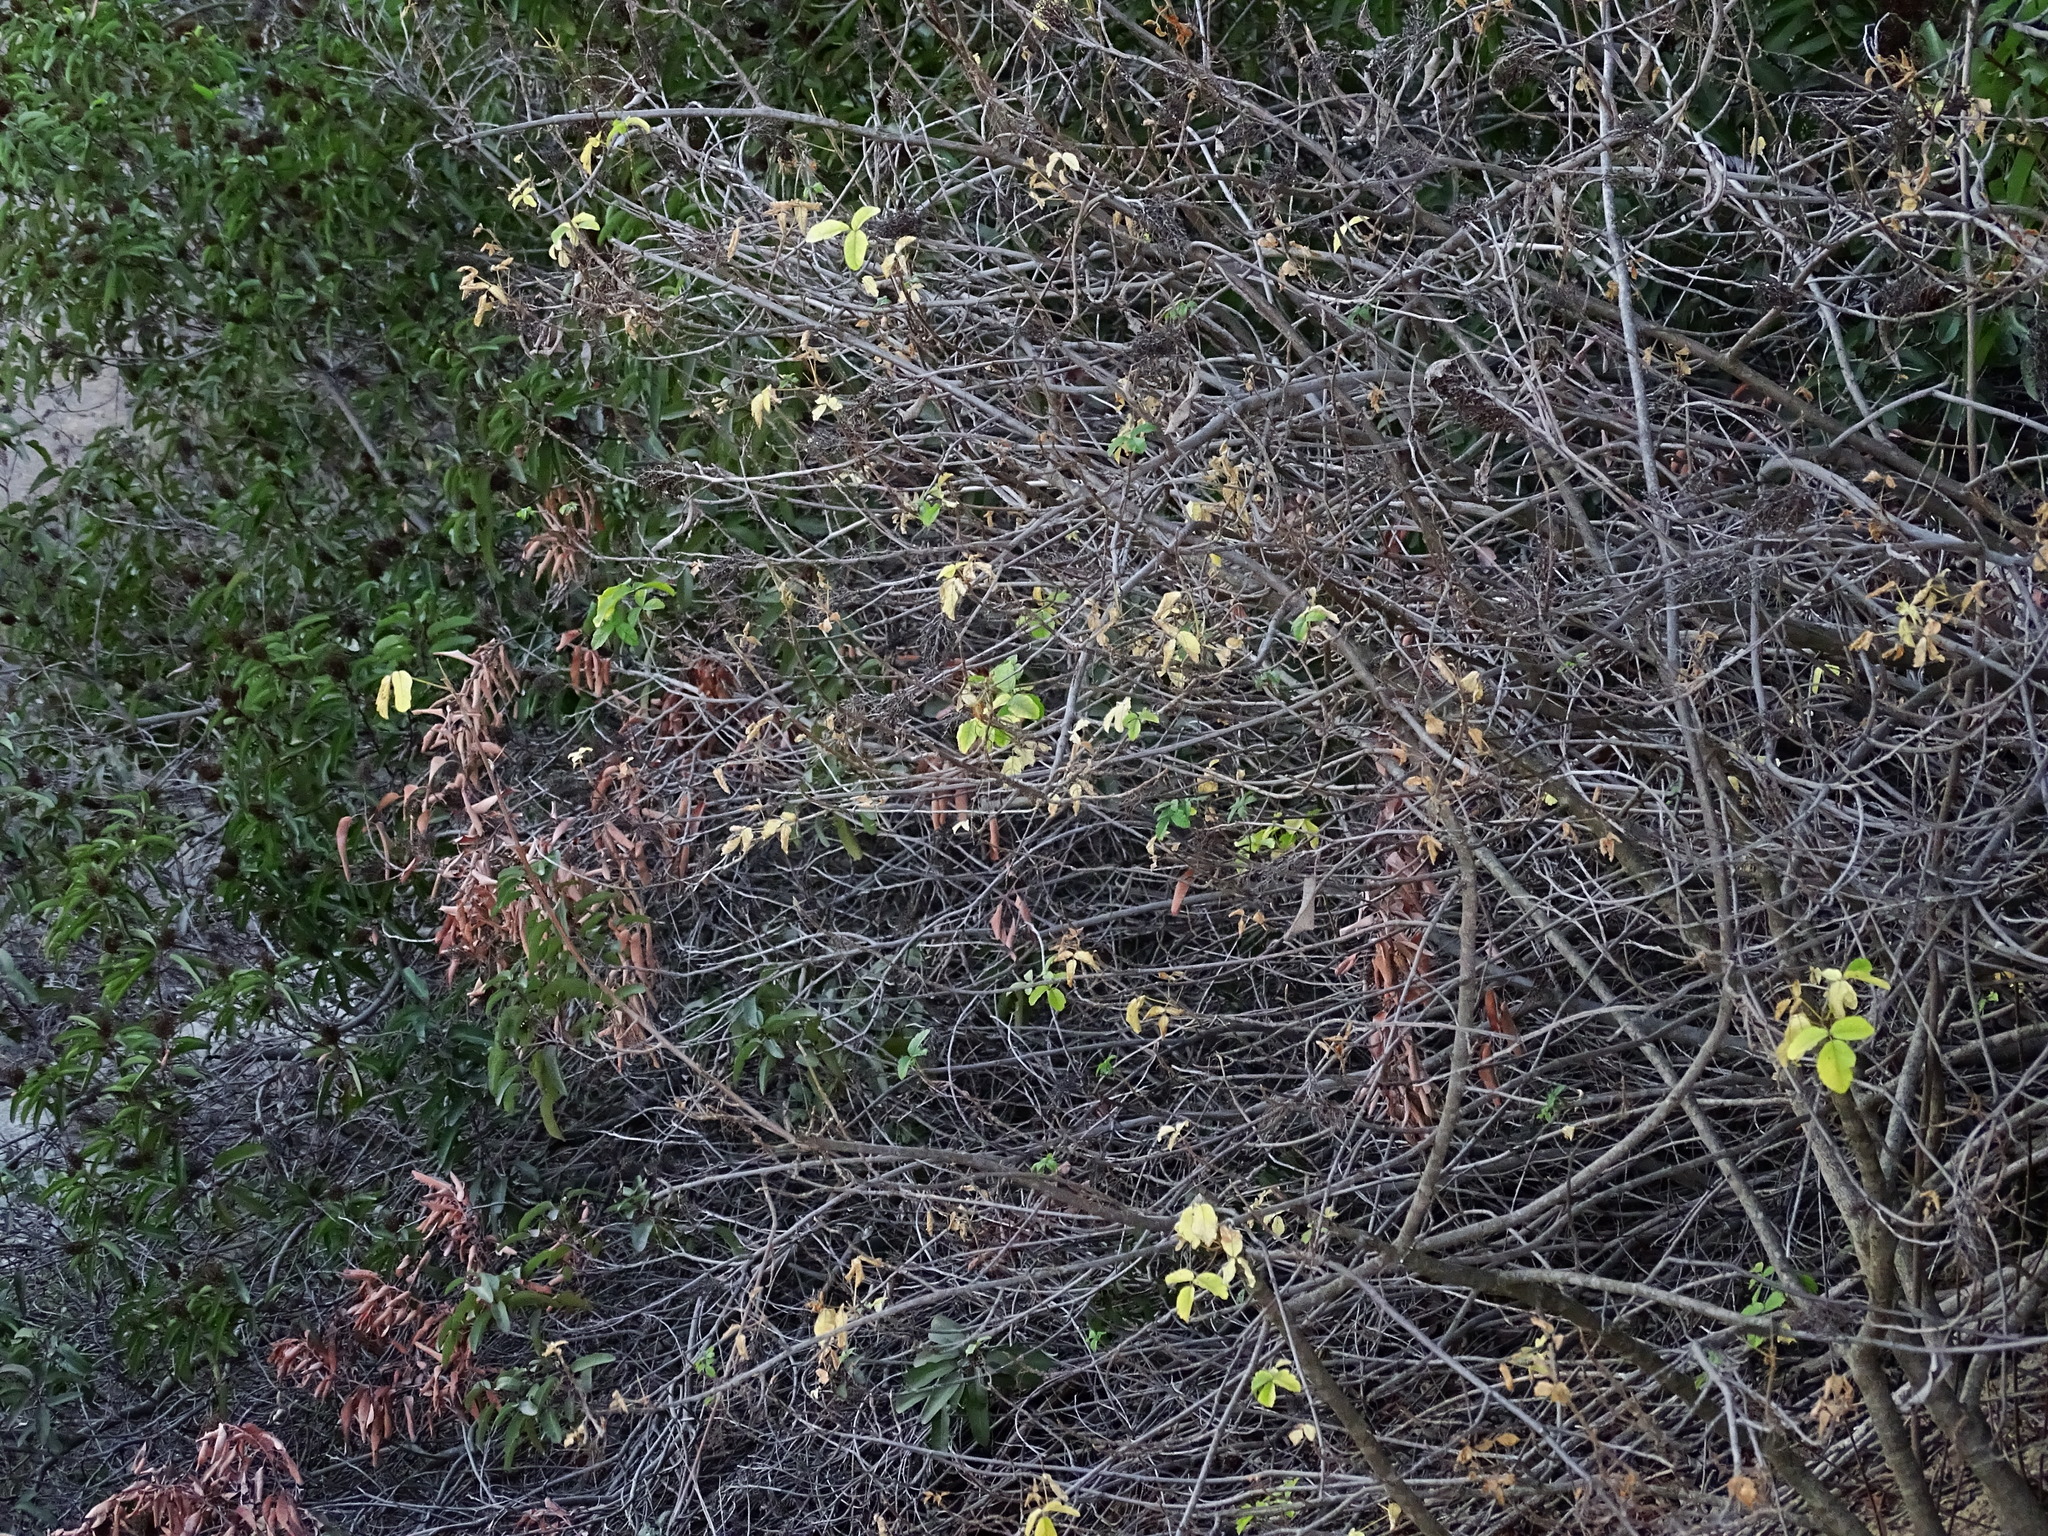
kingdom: Plantae
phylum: Tracheophyta
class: Magnoliopsida
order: Sapindales
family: Anacardiaceae
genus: Toxicodendron
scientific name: Toxicodendron diversilobum
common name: Pacific poison-oak
